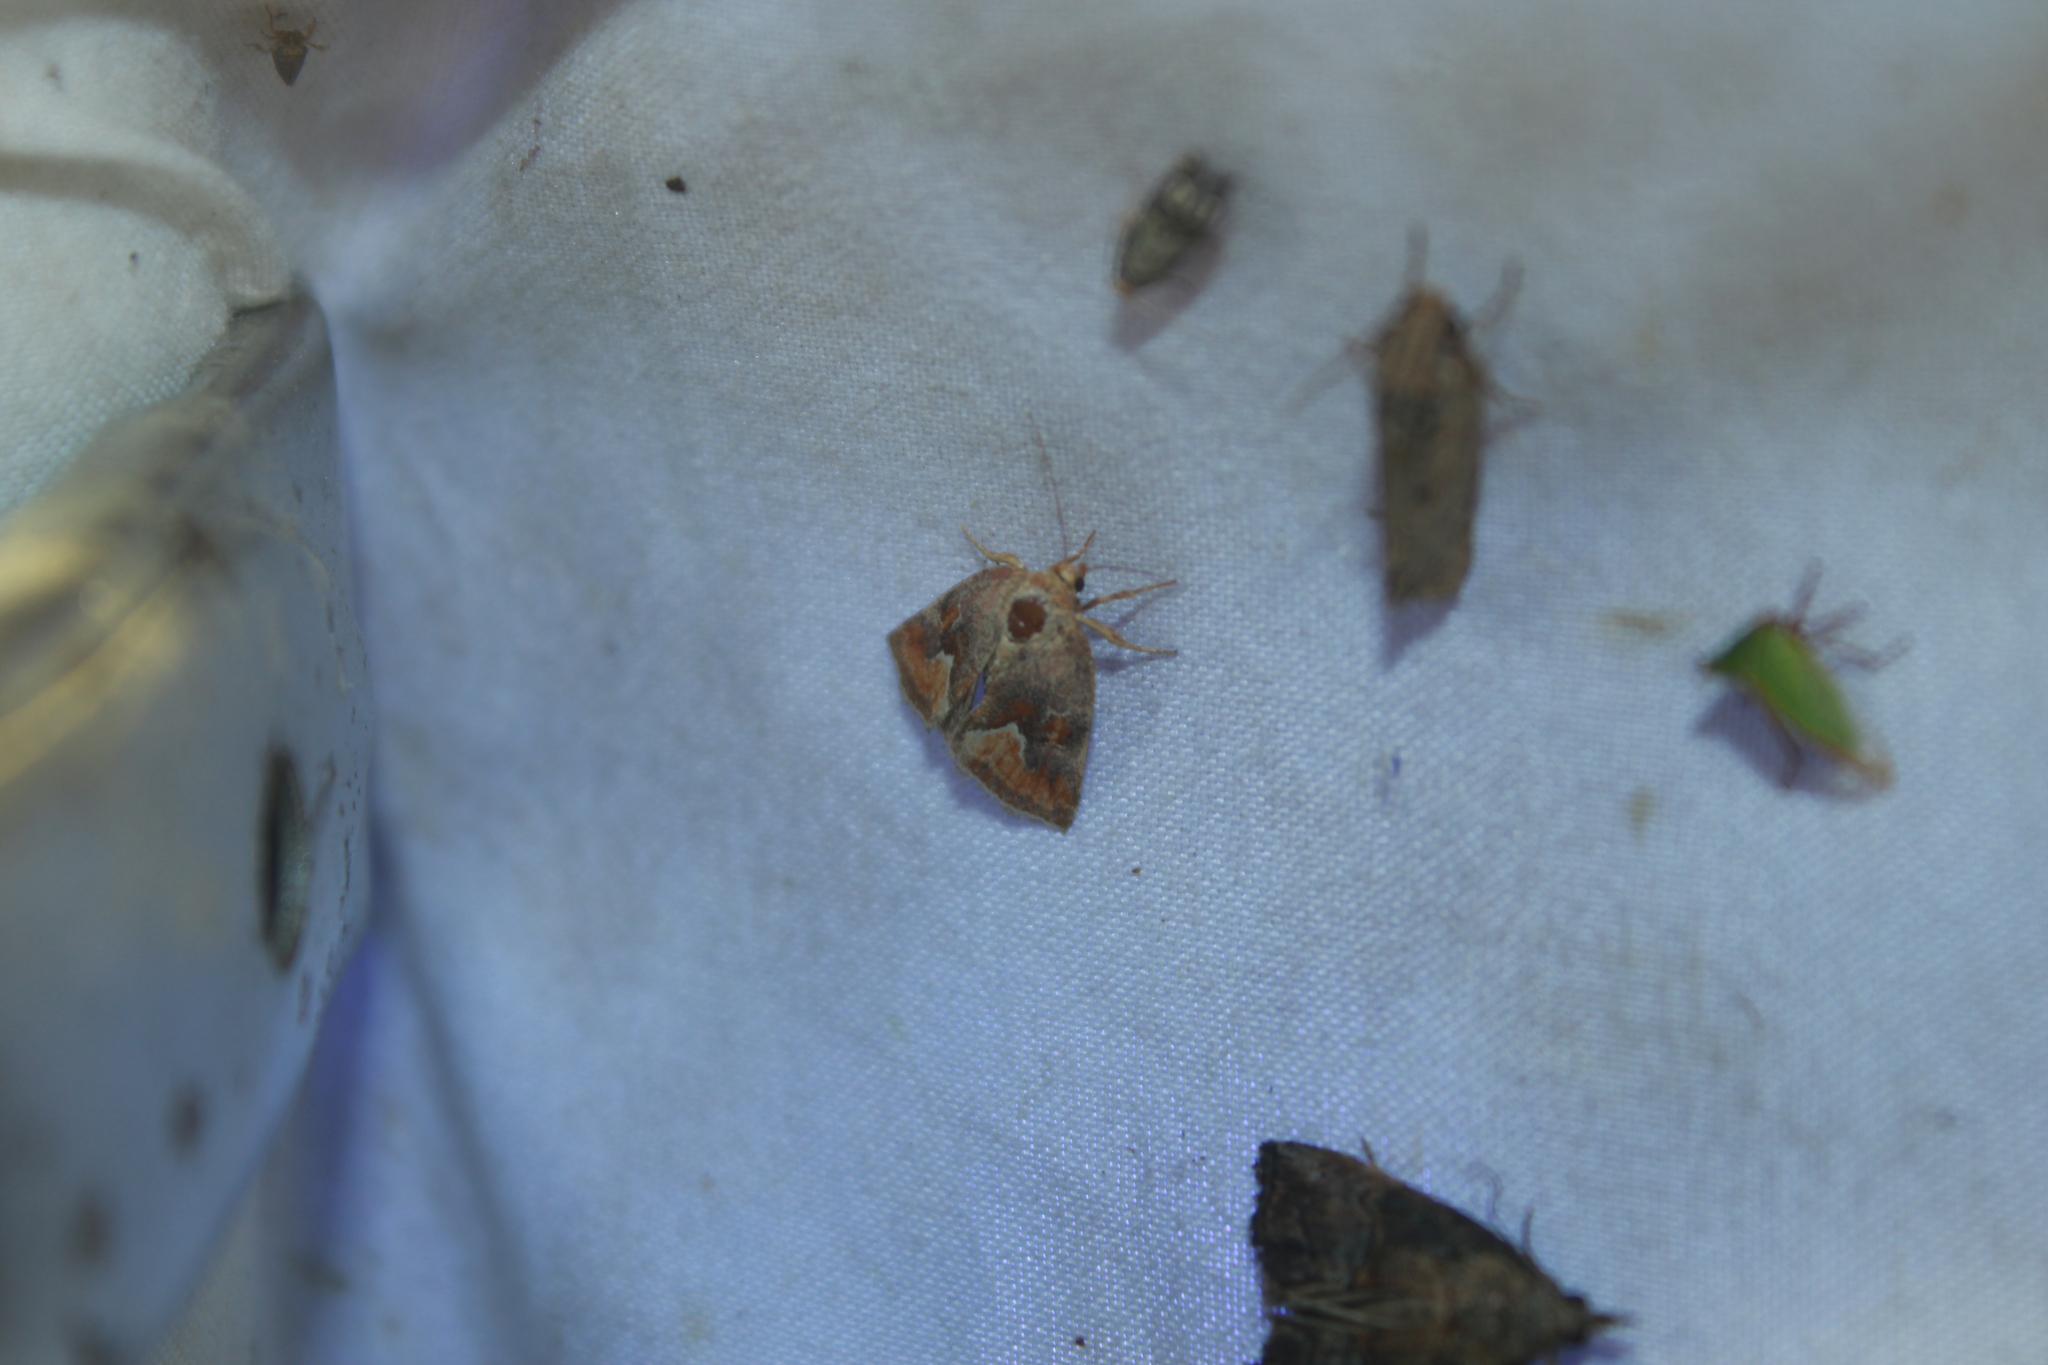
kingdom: Animalia
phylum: Arthropoda
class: Insecta
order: Lepidoptera
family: Noctuidae
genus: Deltote
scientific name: Deltote bellicula
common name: Bog glyph
